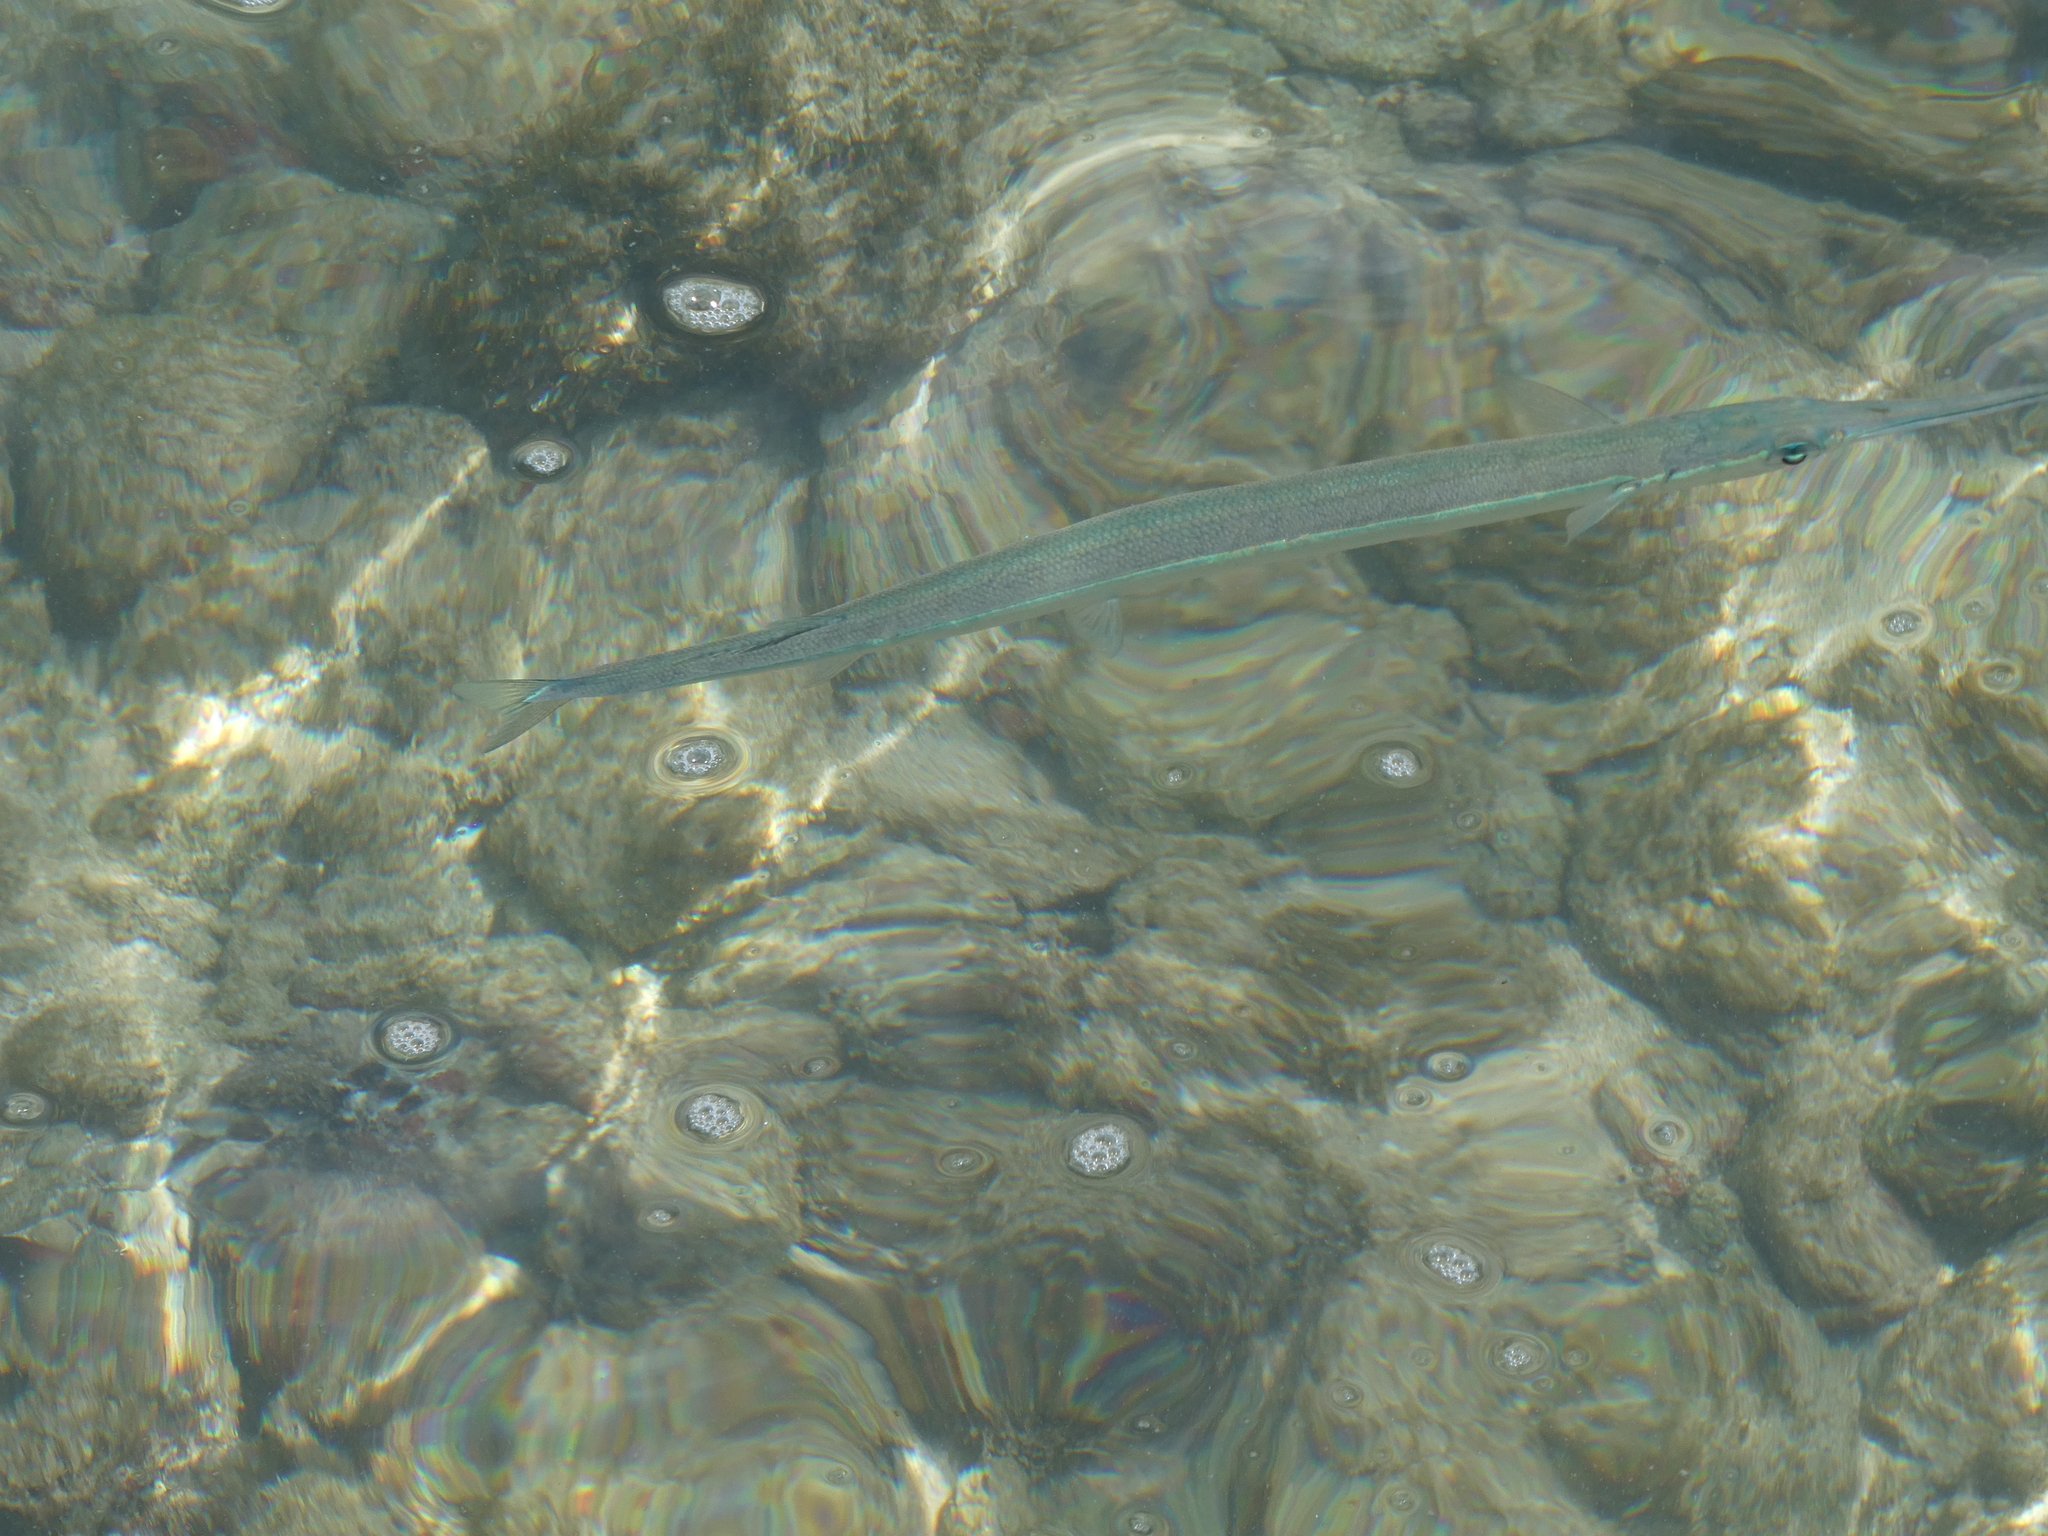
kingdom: Animalia
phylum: Chordata
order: Beloniformes
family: Belonidae
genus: Platybelone
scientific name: Platybelone argalus
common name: Keeltail needlefish
